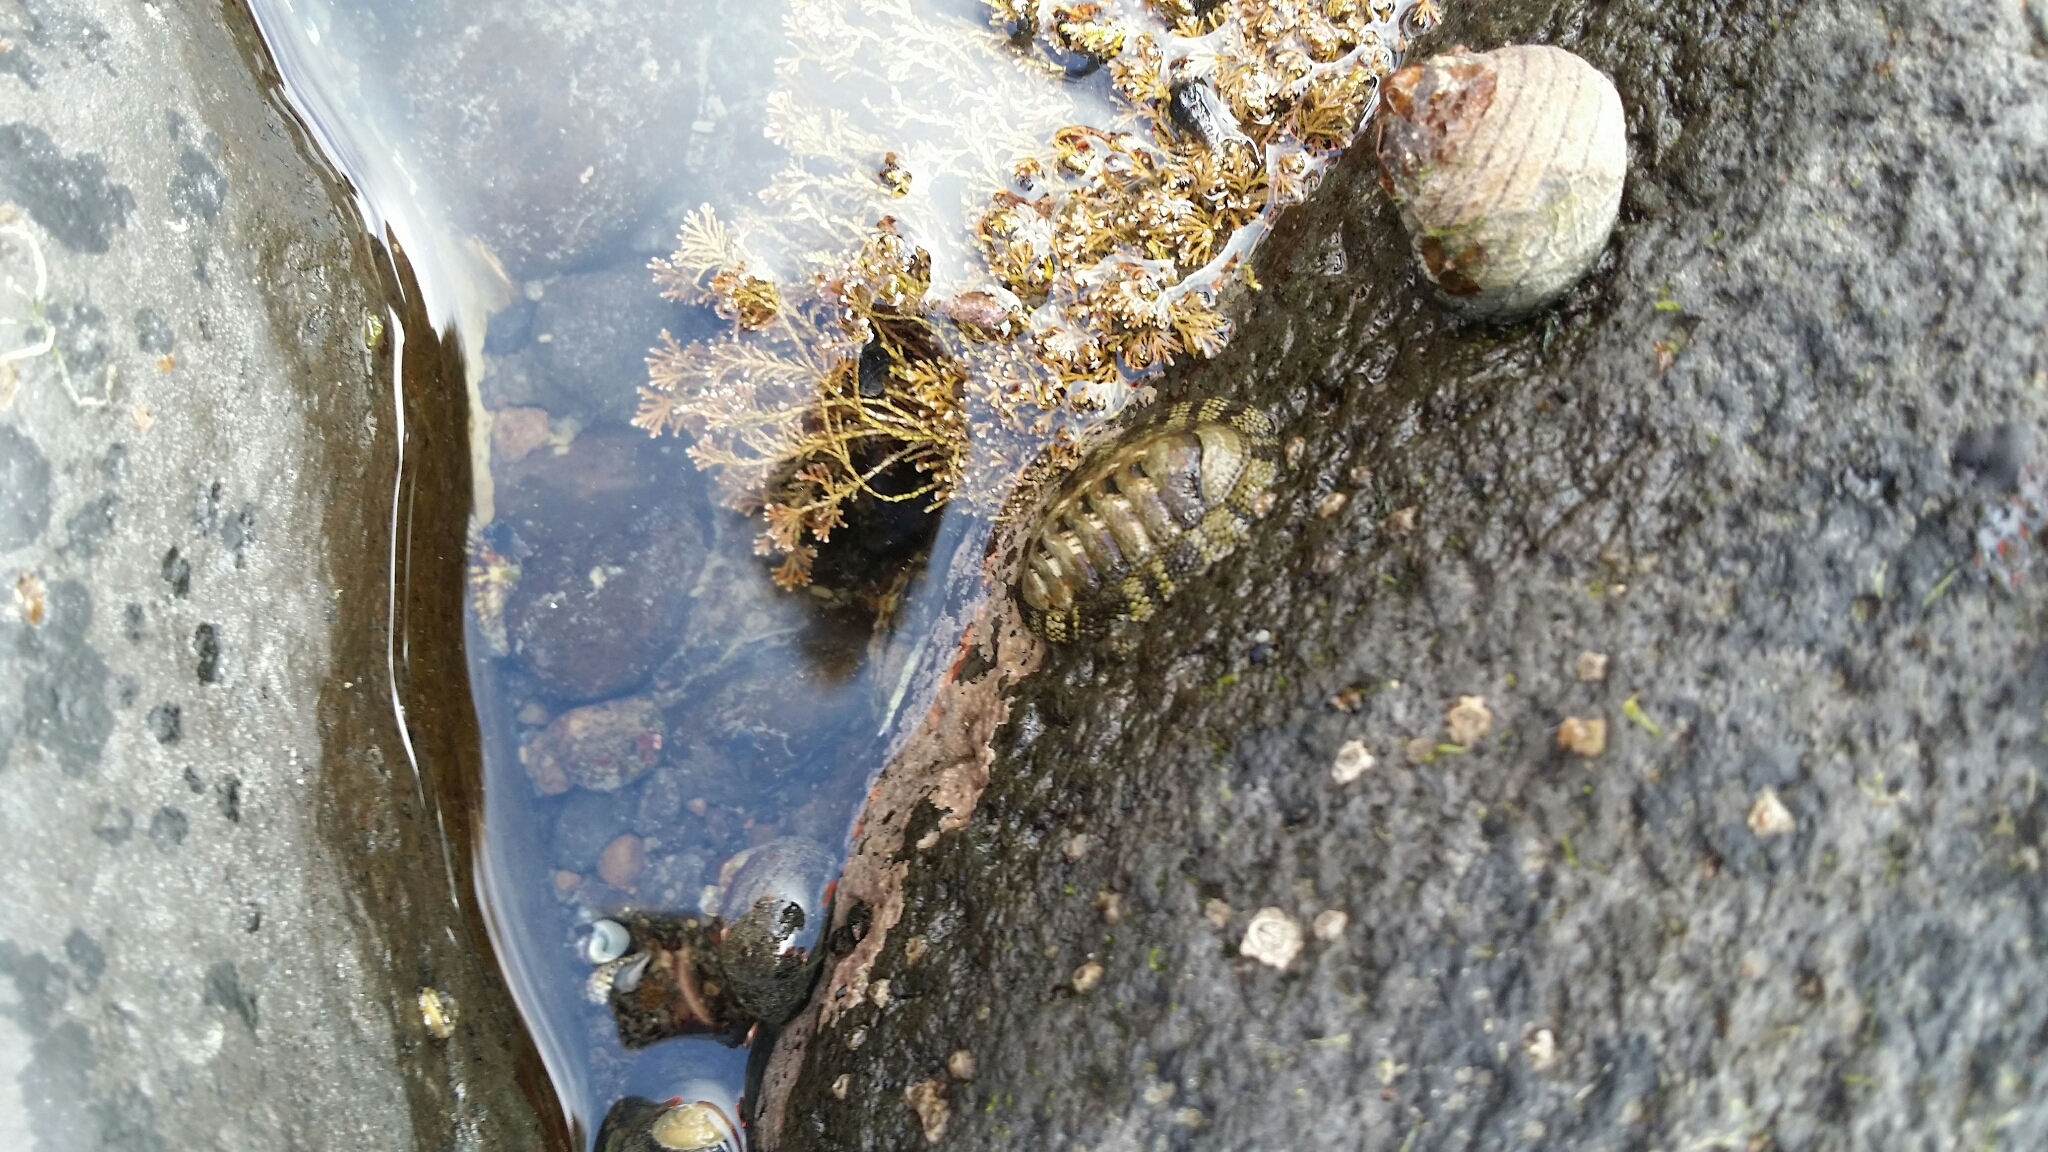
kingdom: Animalia
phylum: Mollusca
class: Polyplacophora
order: Chitonida
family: Chitonidae
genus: Sypharochiton
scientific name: Sypharochiton pelliserpentis
